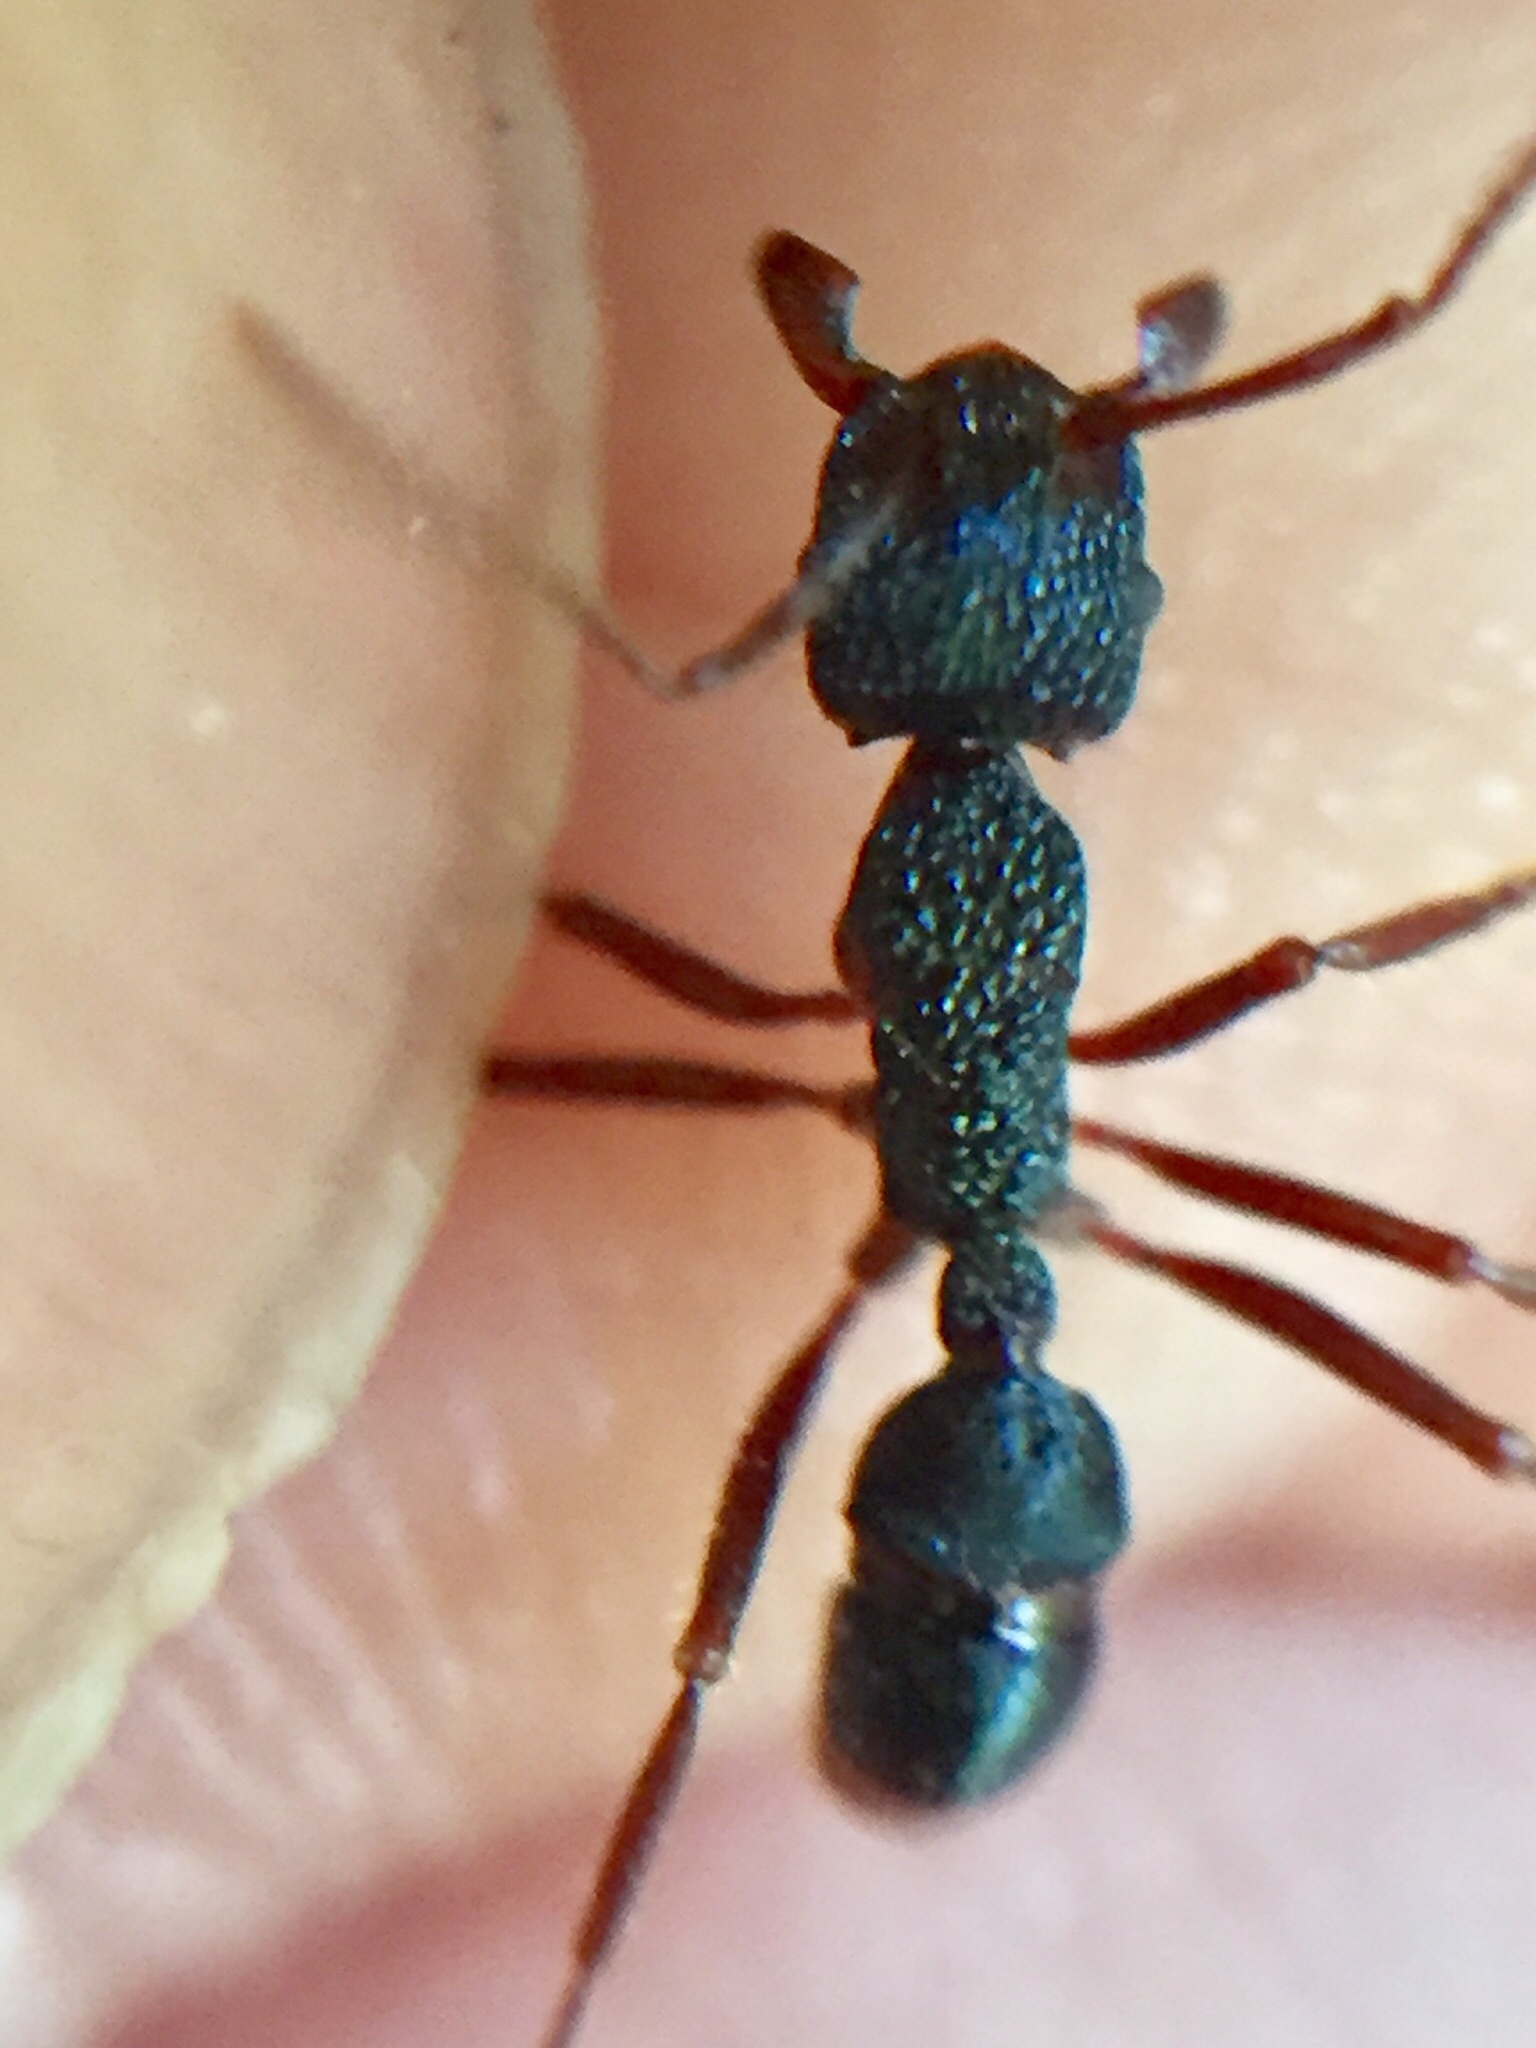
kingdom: Animalia
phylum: Arthropoda
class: Insecta
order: Hymenoptera
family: Formicidae
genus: Rhytidoponera
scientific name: Rhytidoponera chalybaea
